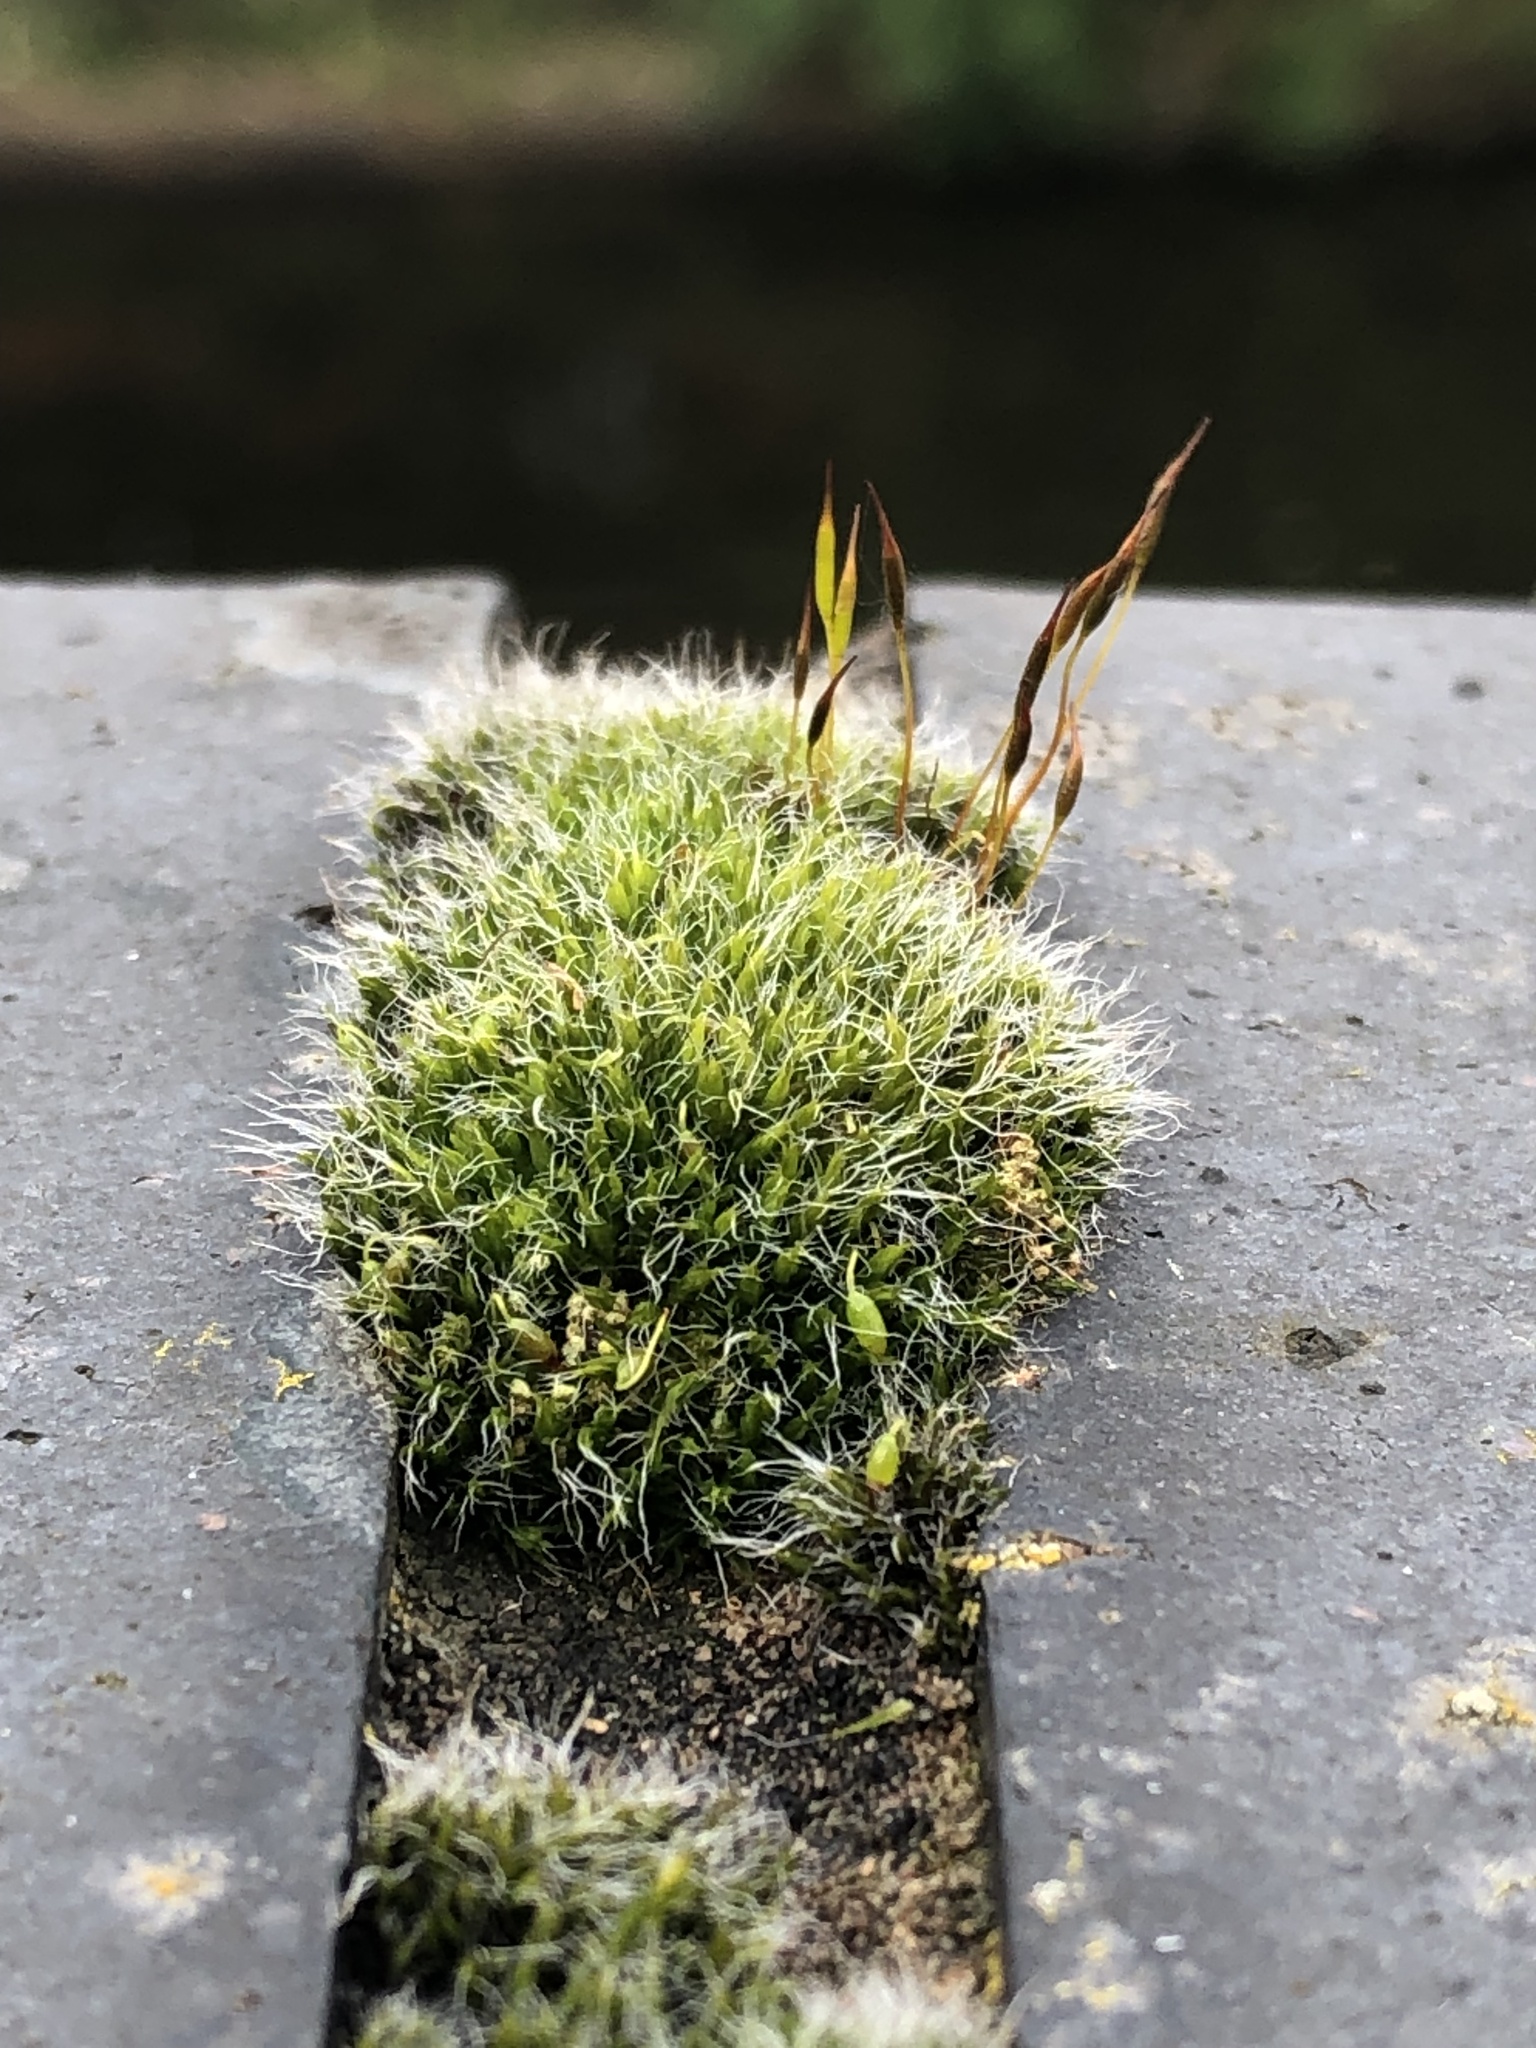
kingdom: Plantae
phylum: Bryophyta
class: Bryopsida
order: Grimmiales
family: Grimmiaceae
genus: Grimmia
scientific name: Grimmia pulvinata
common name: Grey-cushioned grimmia
